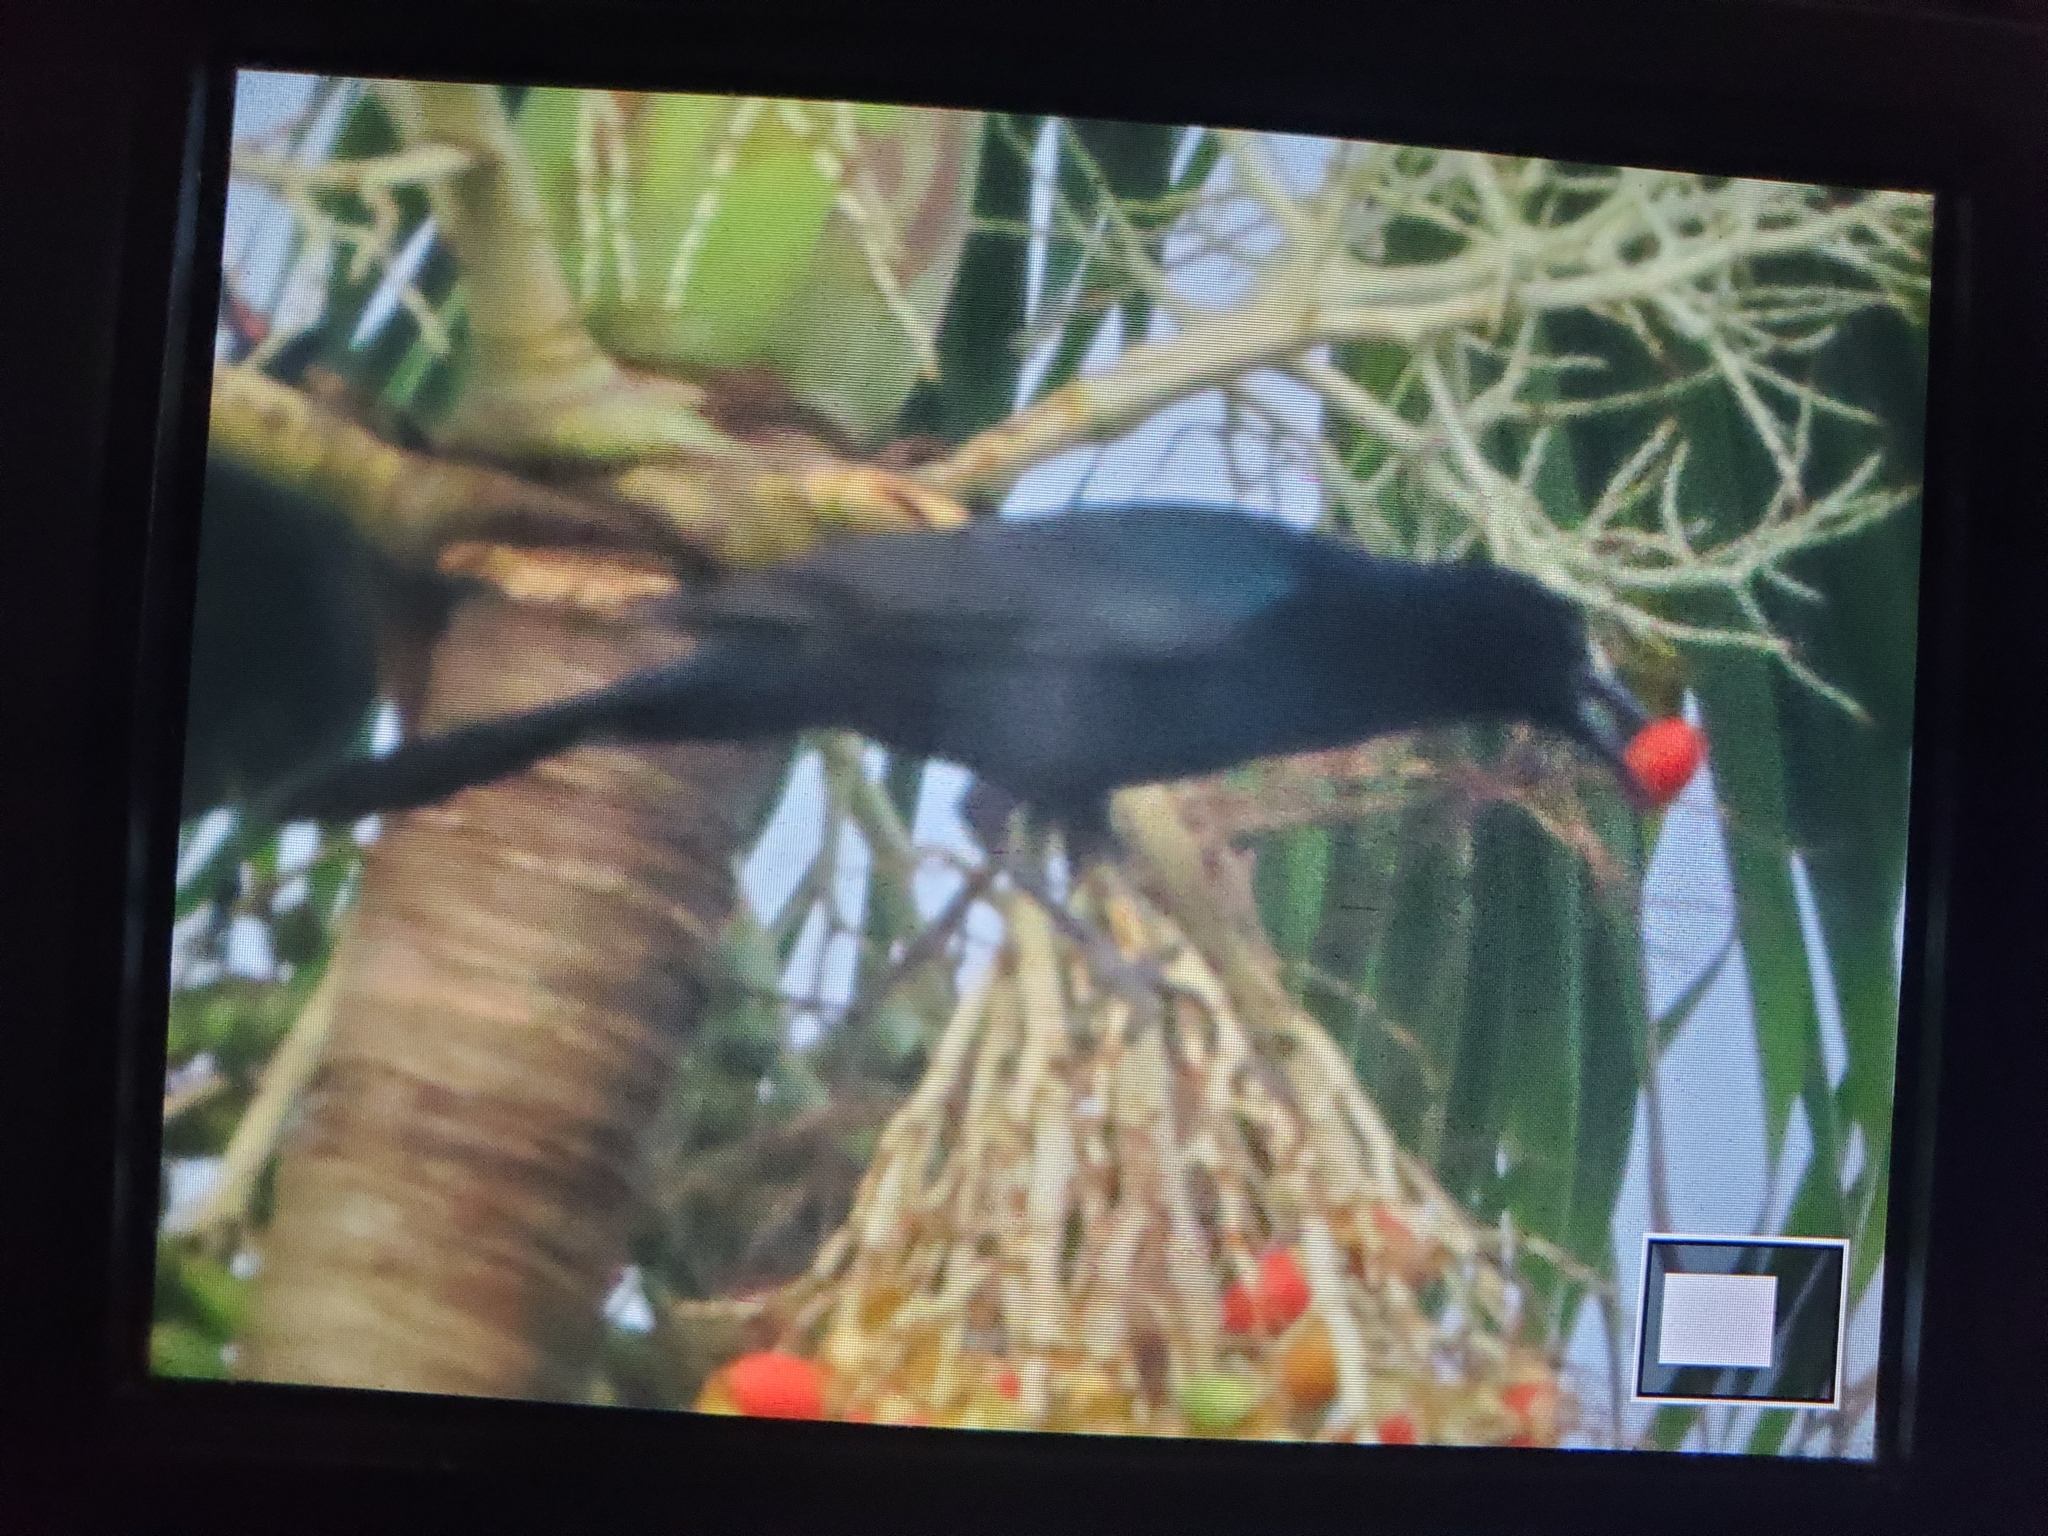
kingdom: Animalia
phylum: Chordata
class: Aves
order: Passeriformes
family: Icteridae
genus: Quiscalus
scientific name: Quiscalus major
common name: Boat-tailed grackle
